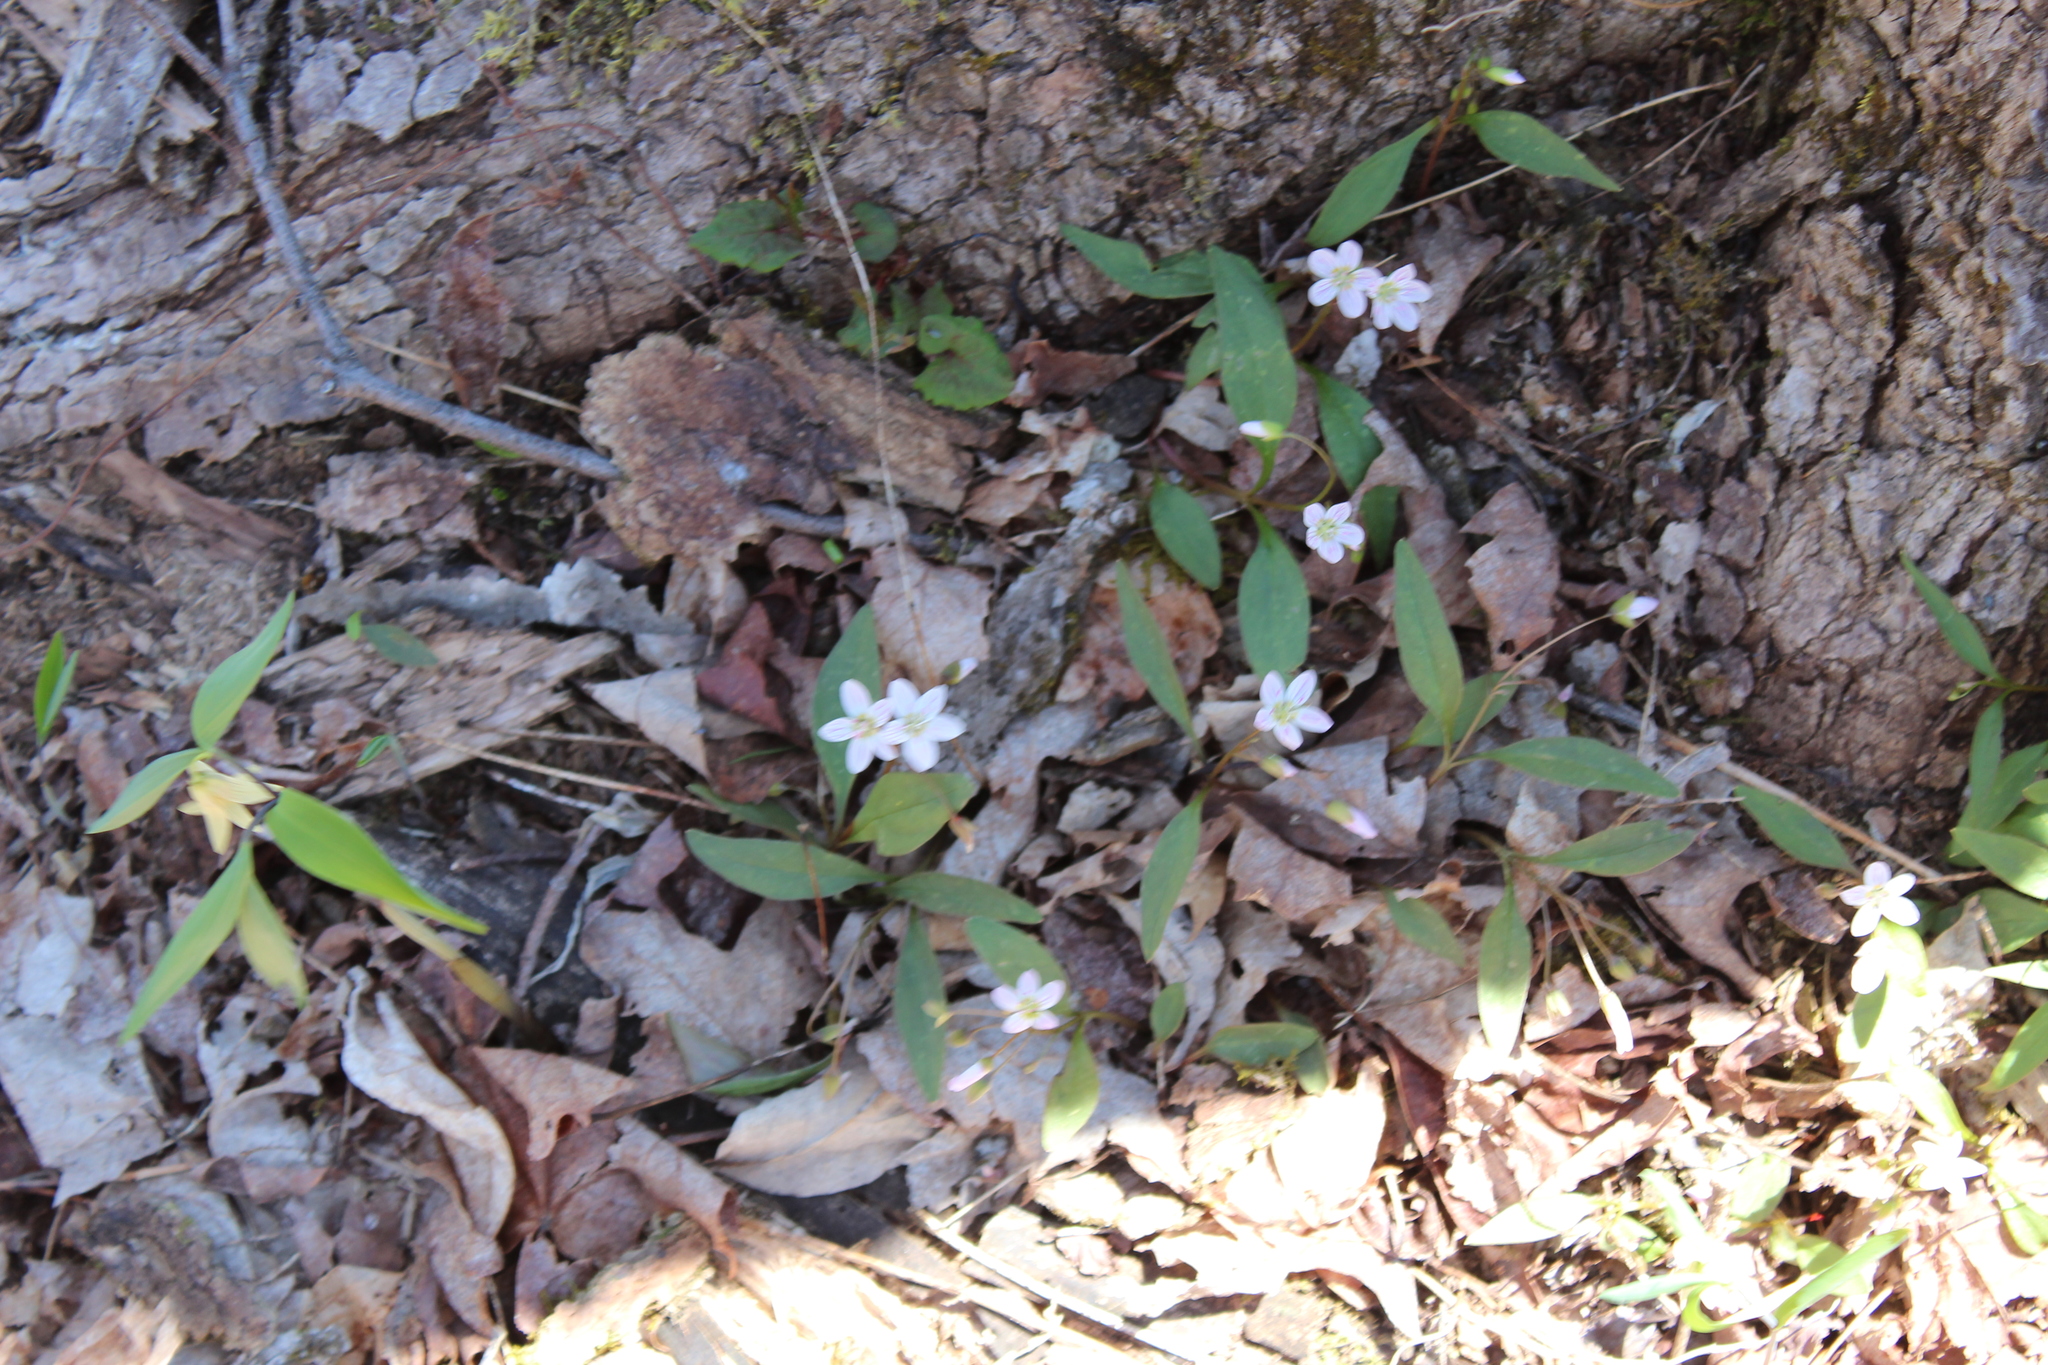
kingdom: Plantae
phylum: Tracheophyta
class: Magnoliopsida
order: Caryophyllales
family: Montiaceae
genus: Claytonia
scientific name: Claytonia caroliniana
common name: Carolina spring beauty
